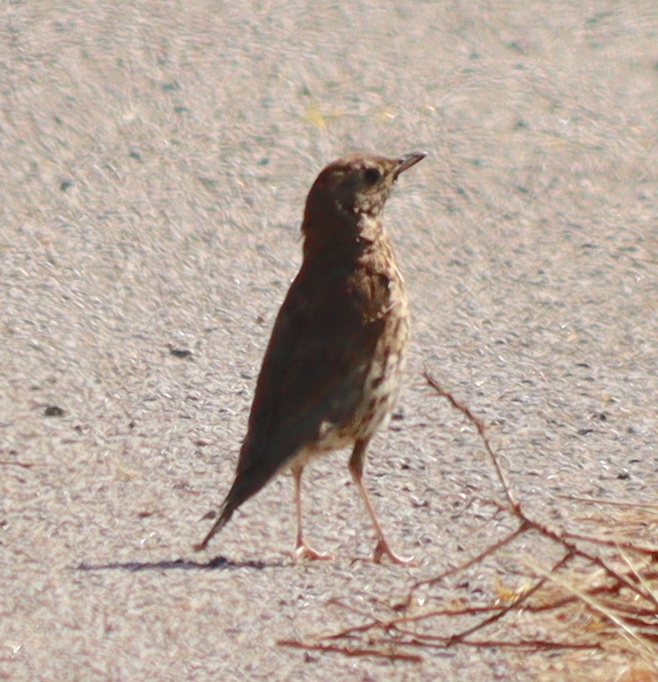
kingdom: Animalia
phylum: Chordata
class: Aves
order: Passeriformes
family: Turdidae
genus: Turdus
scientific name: Turdus philomelos
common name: Song thrush
